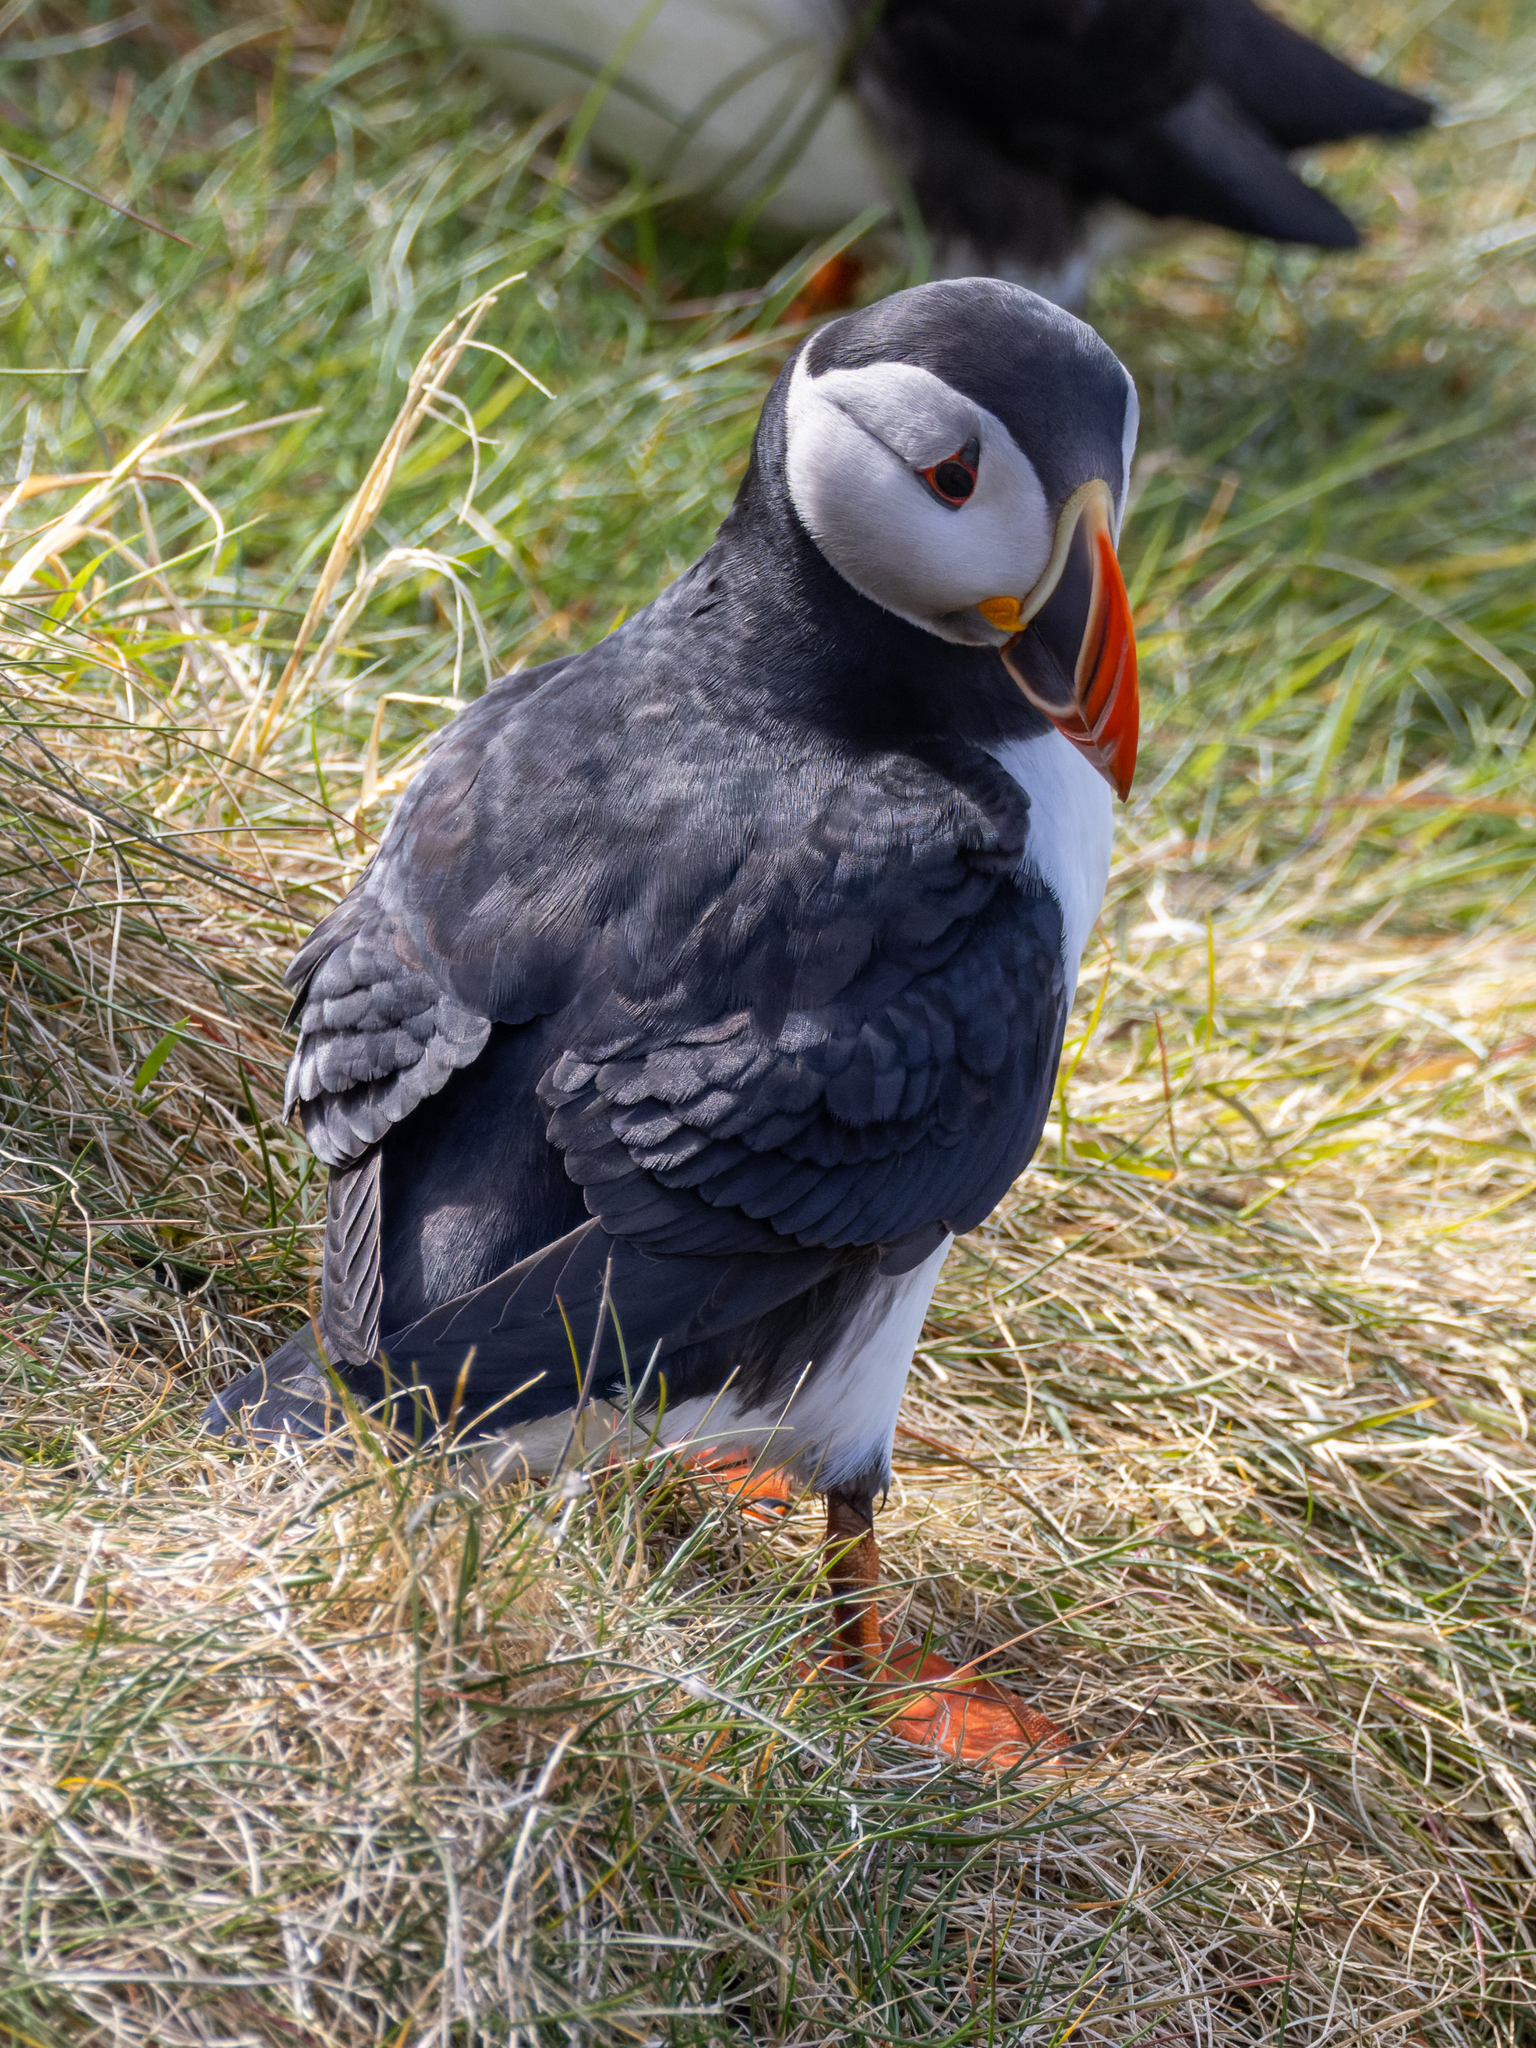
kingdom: Animalia
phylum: Chordata
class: Aves
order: Charadriiformes
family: Alcidae
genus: Fratercula
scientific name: Fratercula arctica
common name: Atlantic puffin
